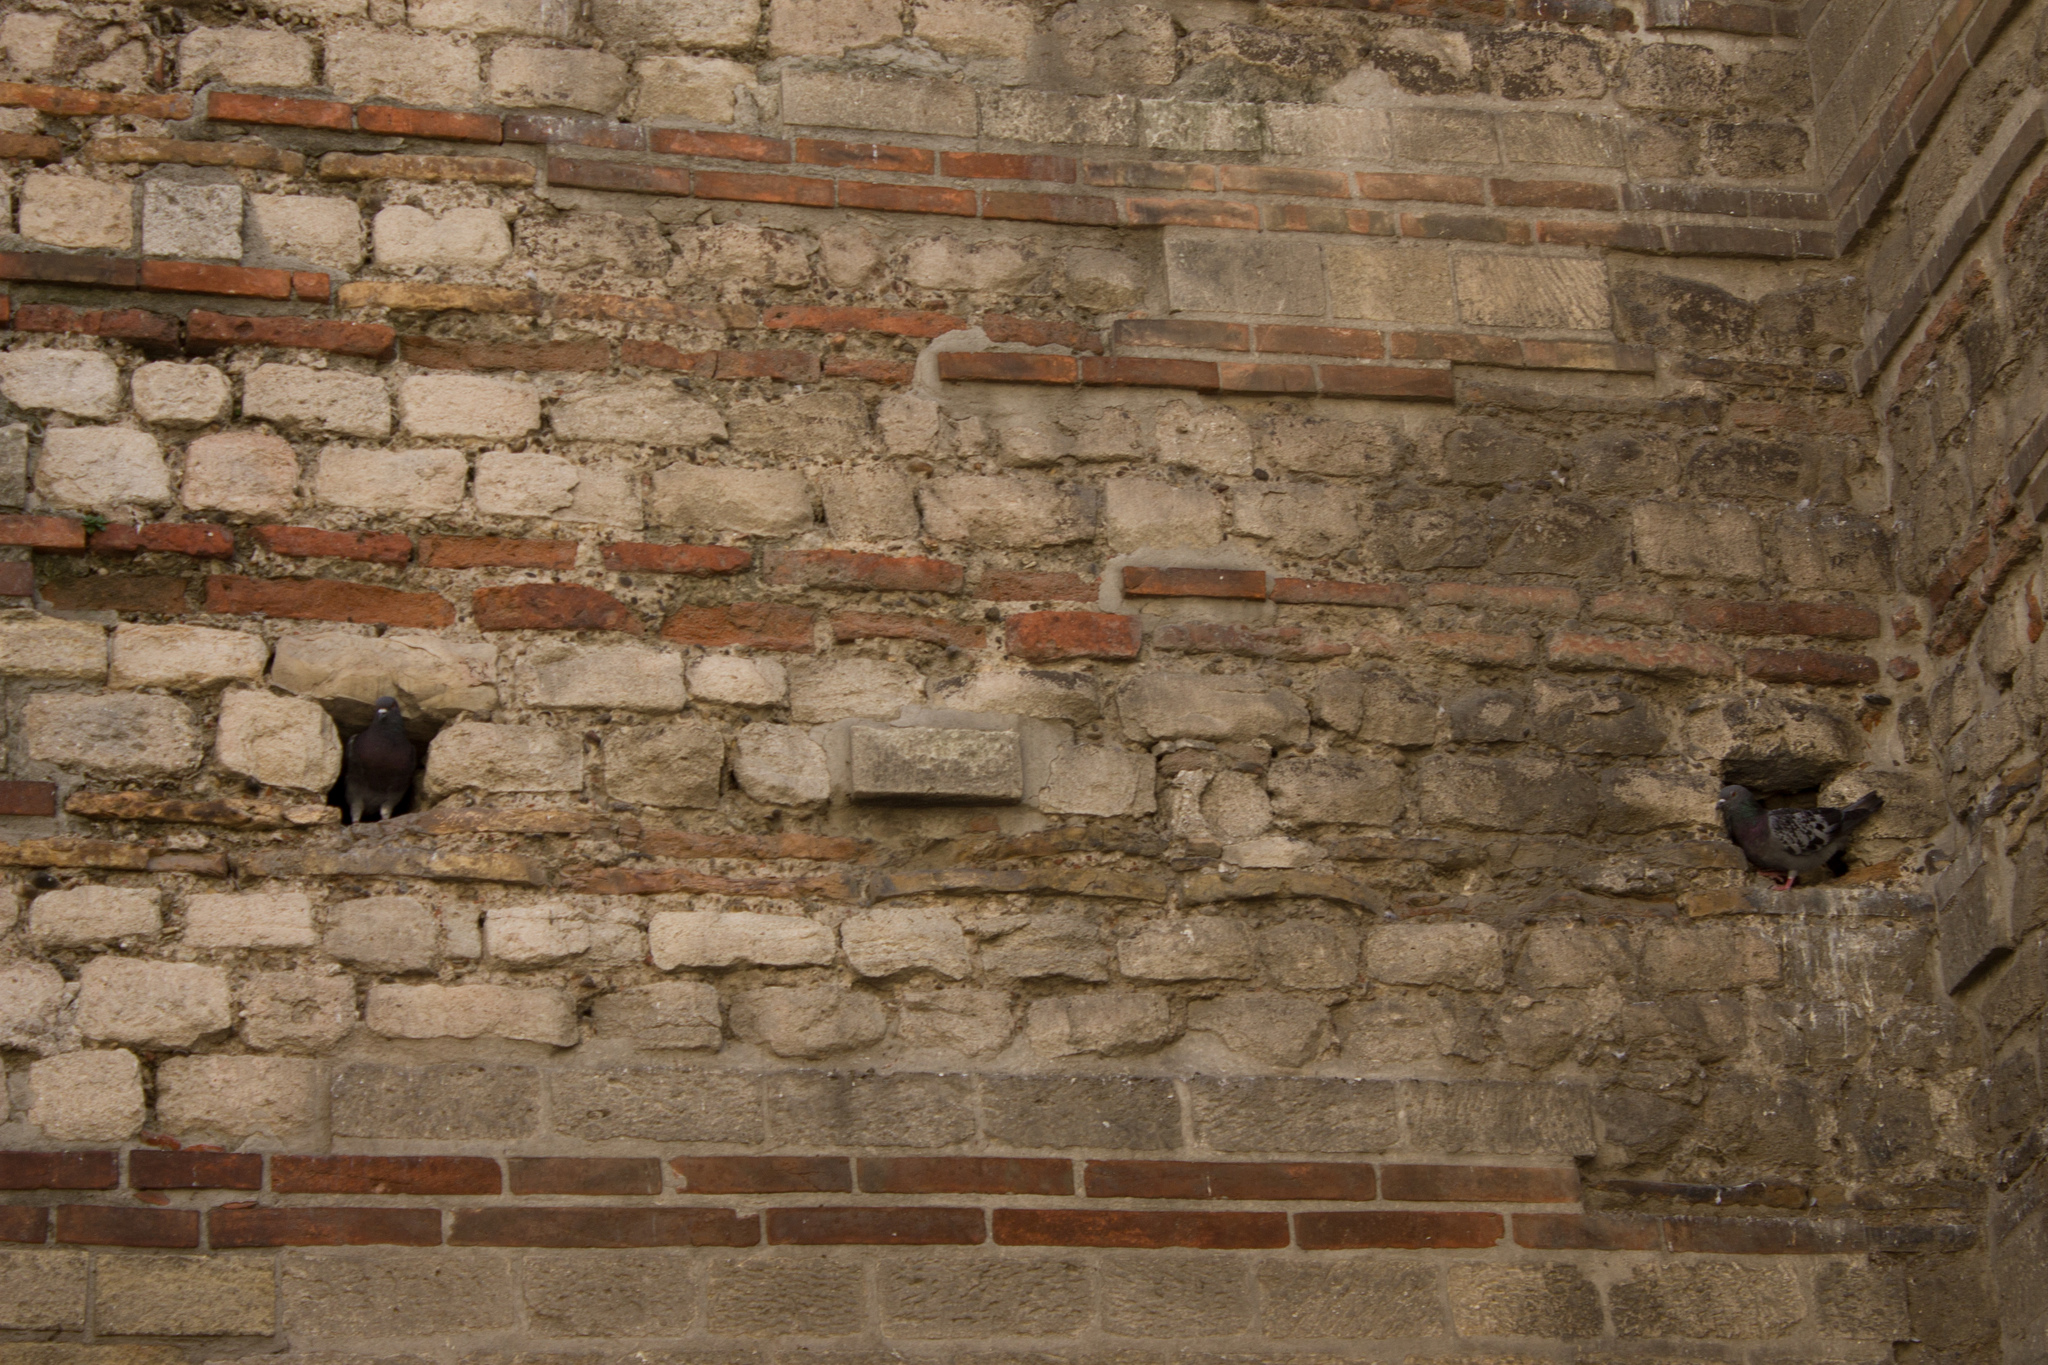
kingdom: Animalia
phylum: Chordata
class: Aves
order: Columbiformes
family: Columbidae
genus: Columba
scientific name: Columba livia
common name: Rock pigeon
